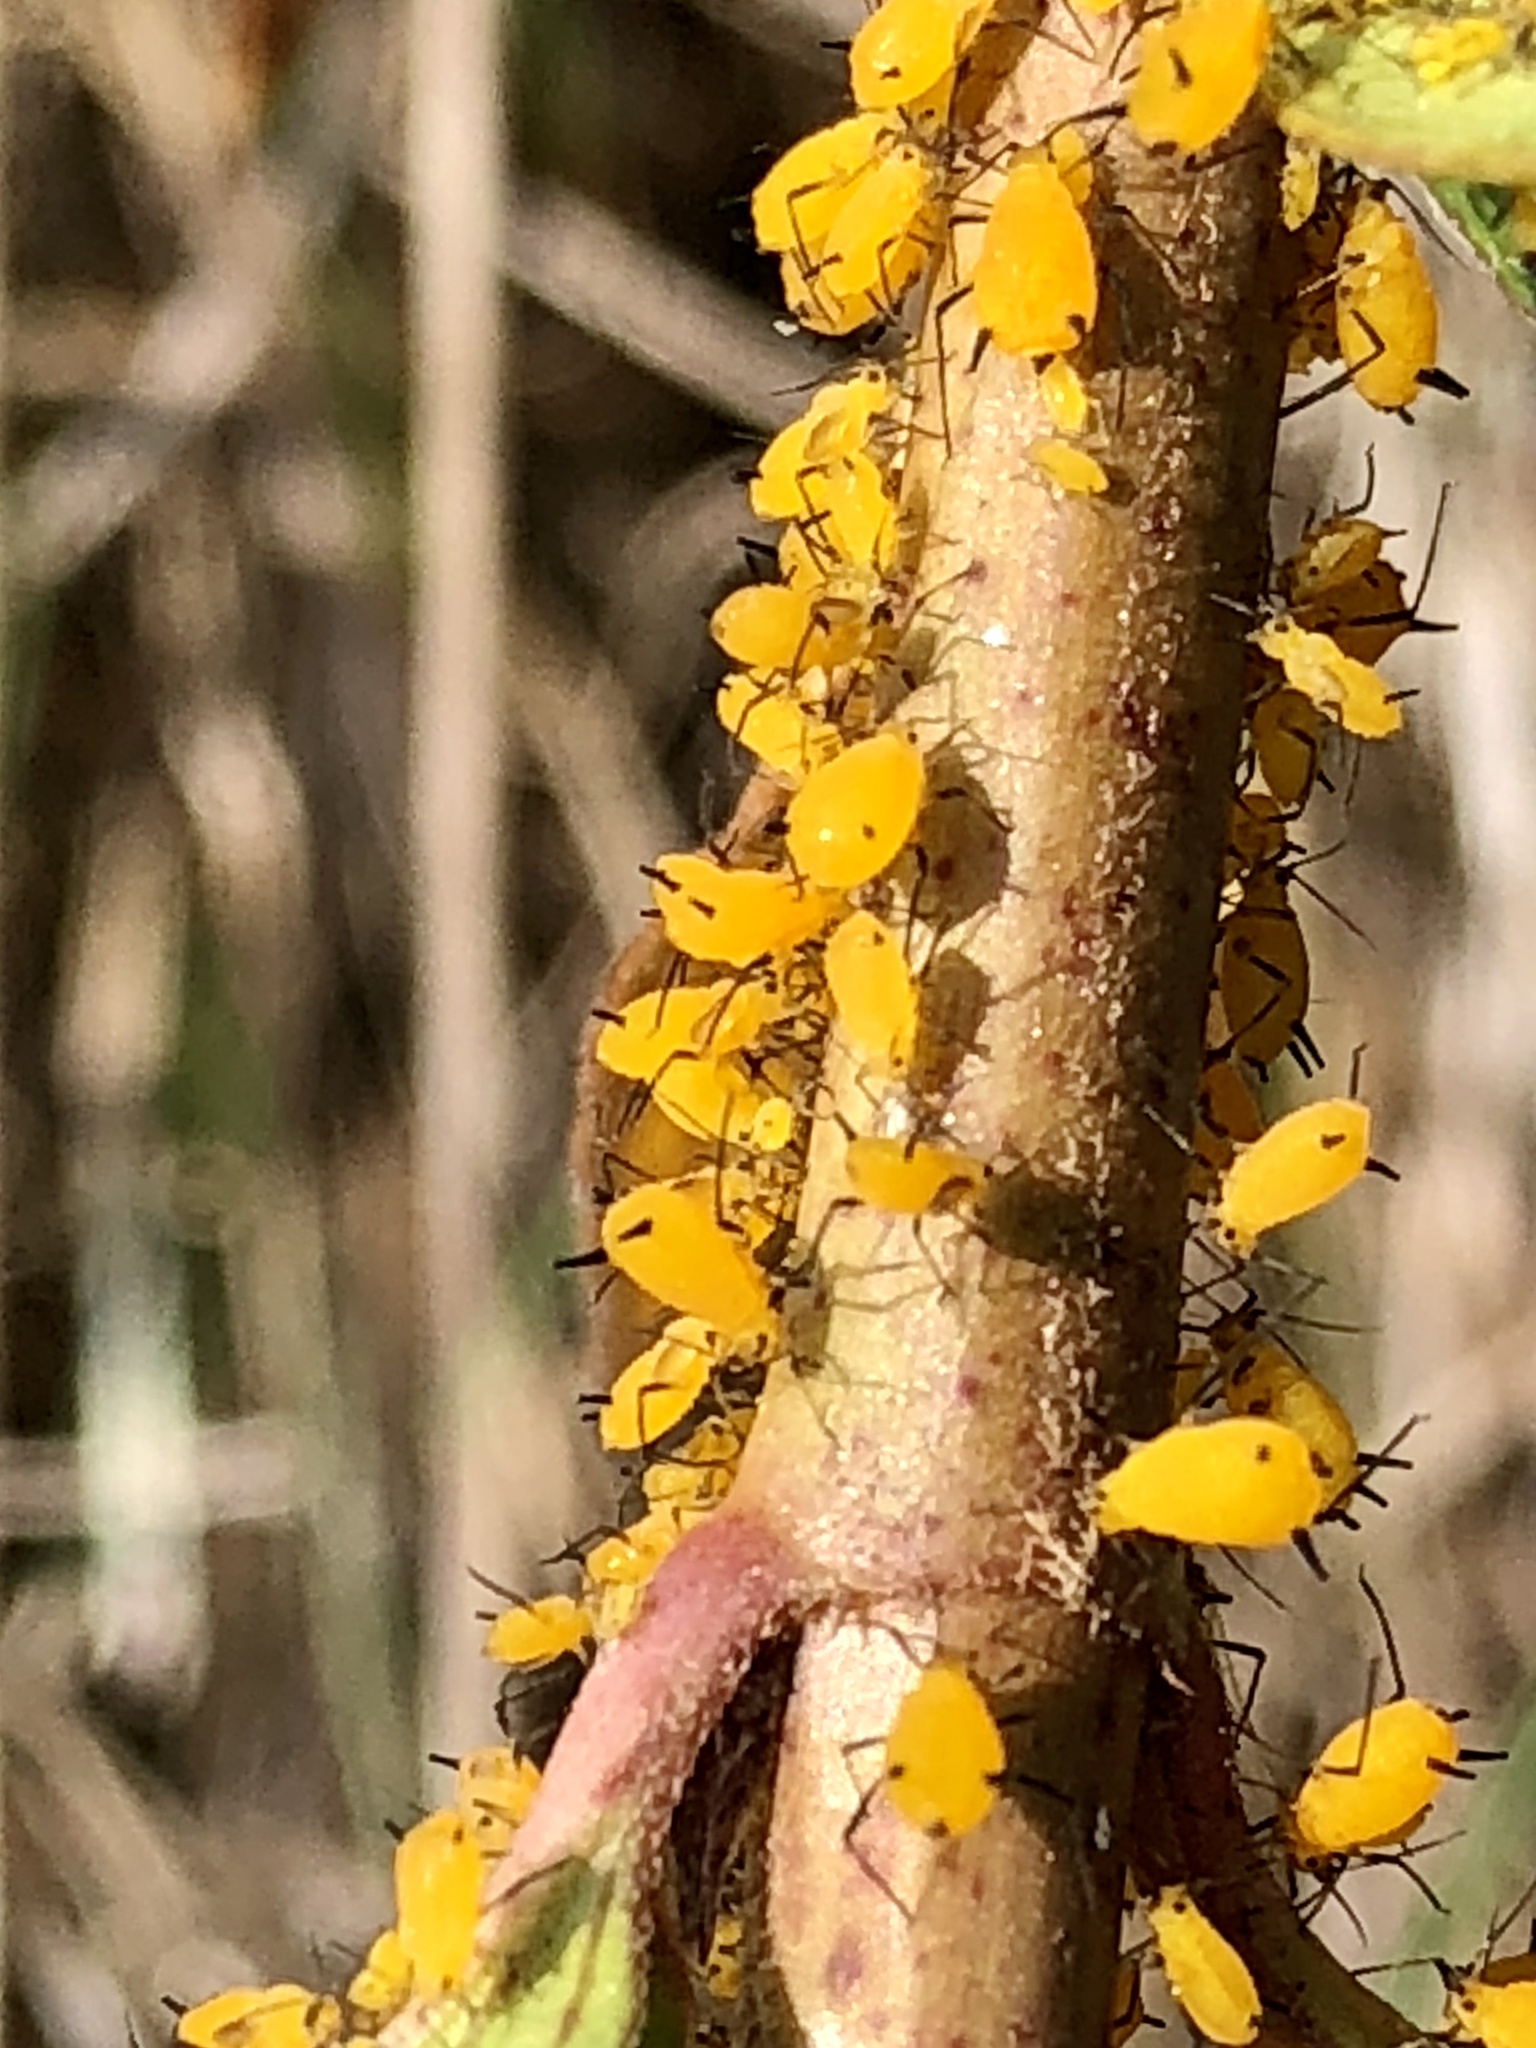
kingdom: Animalia
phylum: Arthropoda
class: Insecta
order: Hemiptera
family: Aphididae
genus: Aphis
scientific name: Aphis nerii
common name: Oleander aphid
